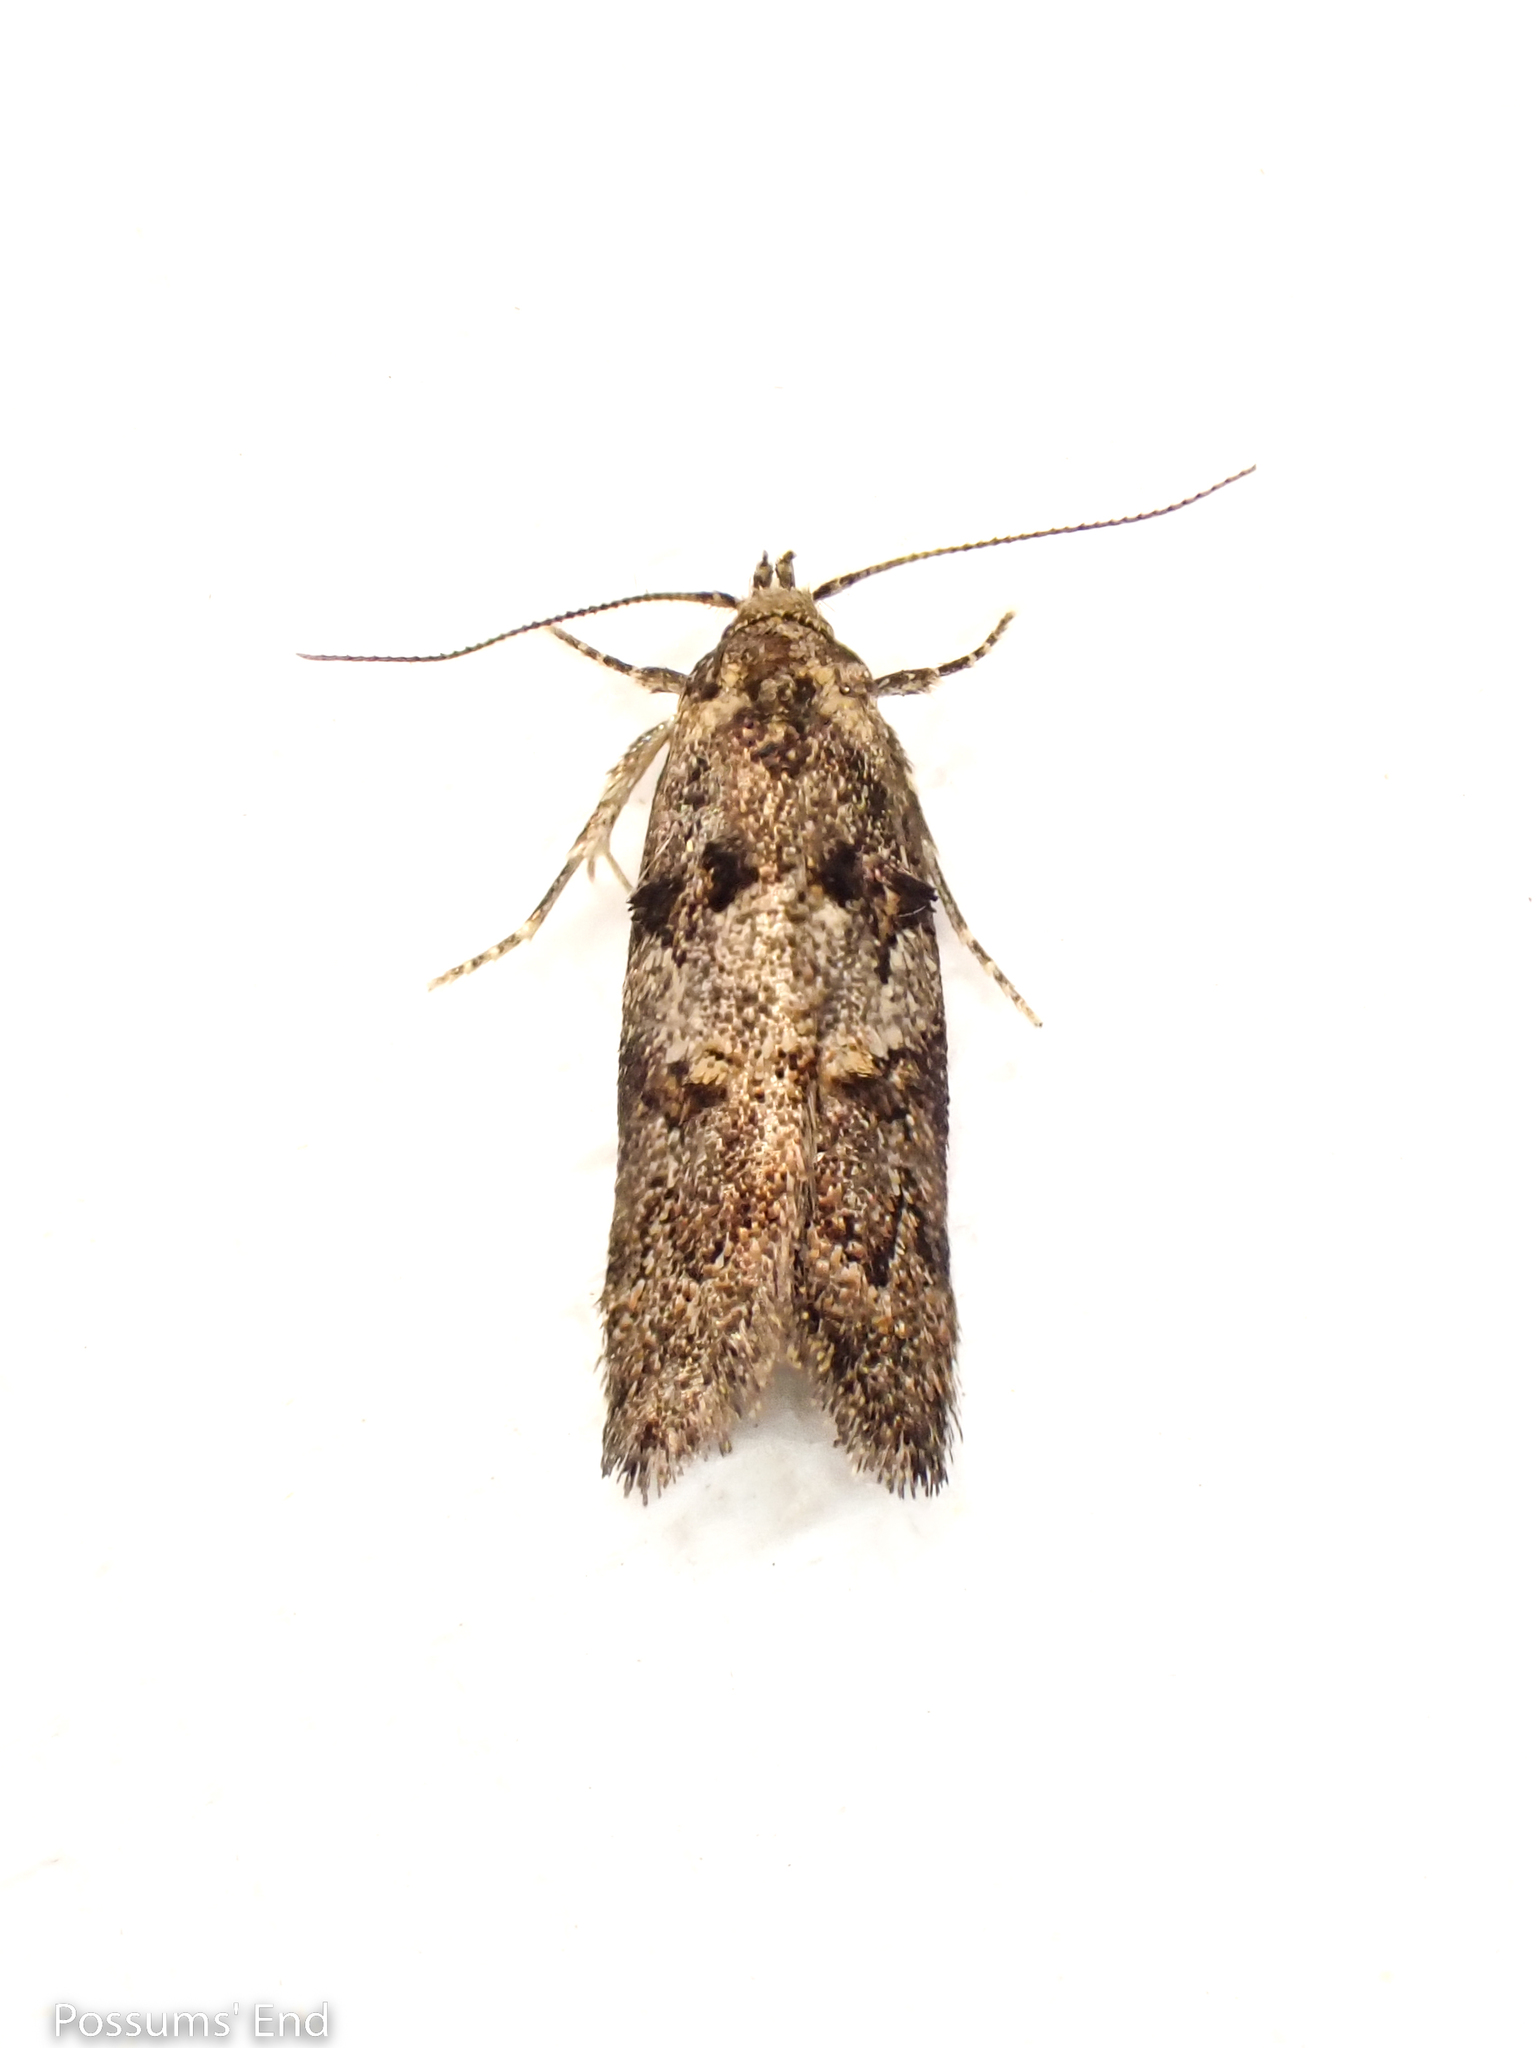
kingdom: Animalia
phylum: Arthropoda
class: Insecta
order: Lepidoptera
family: Oecophoridae
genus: Trachypepla
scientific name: Trachypepla anastrella
